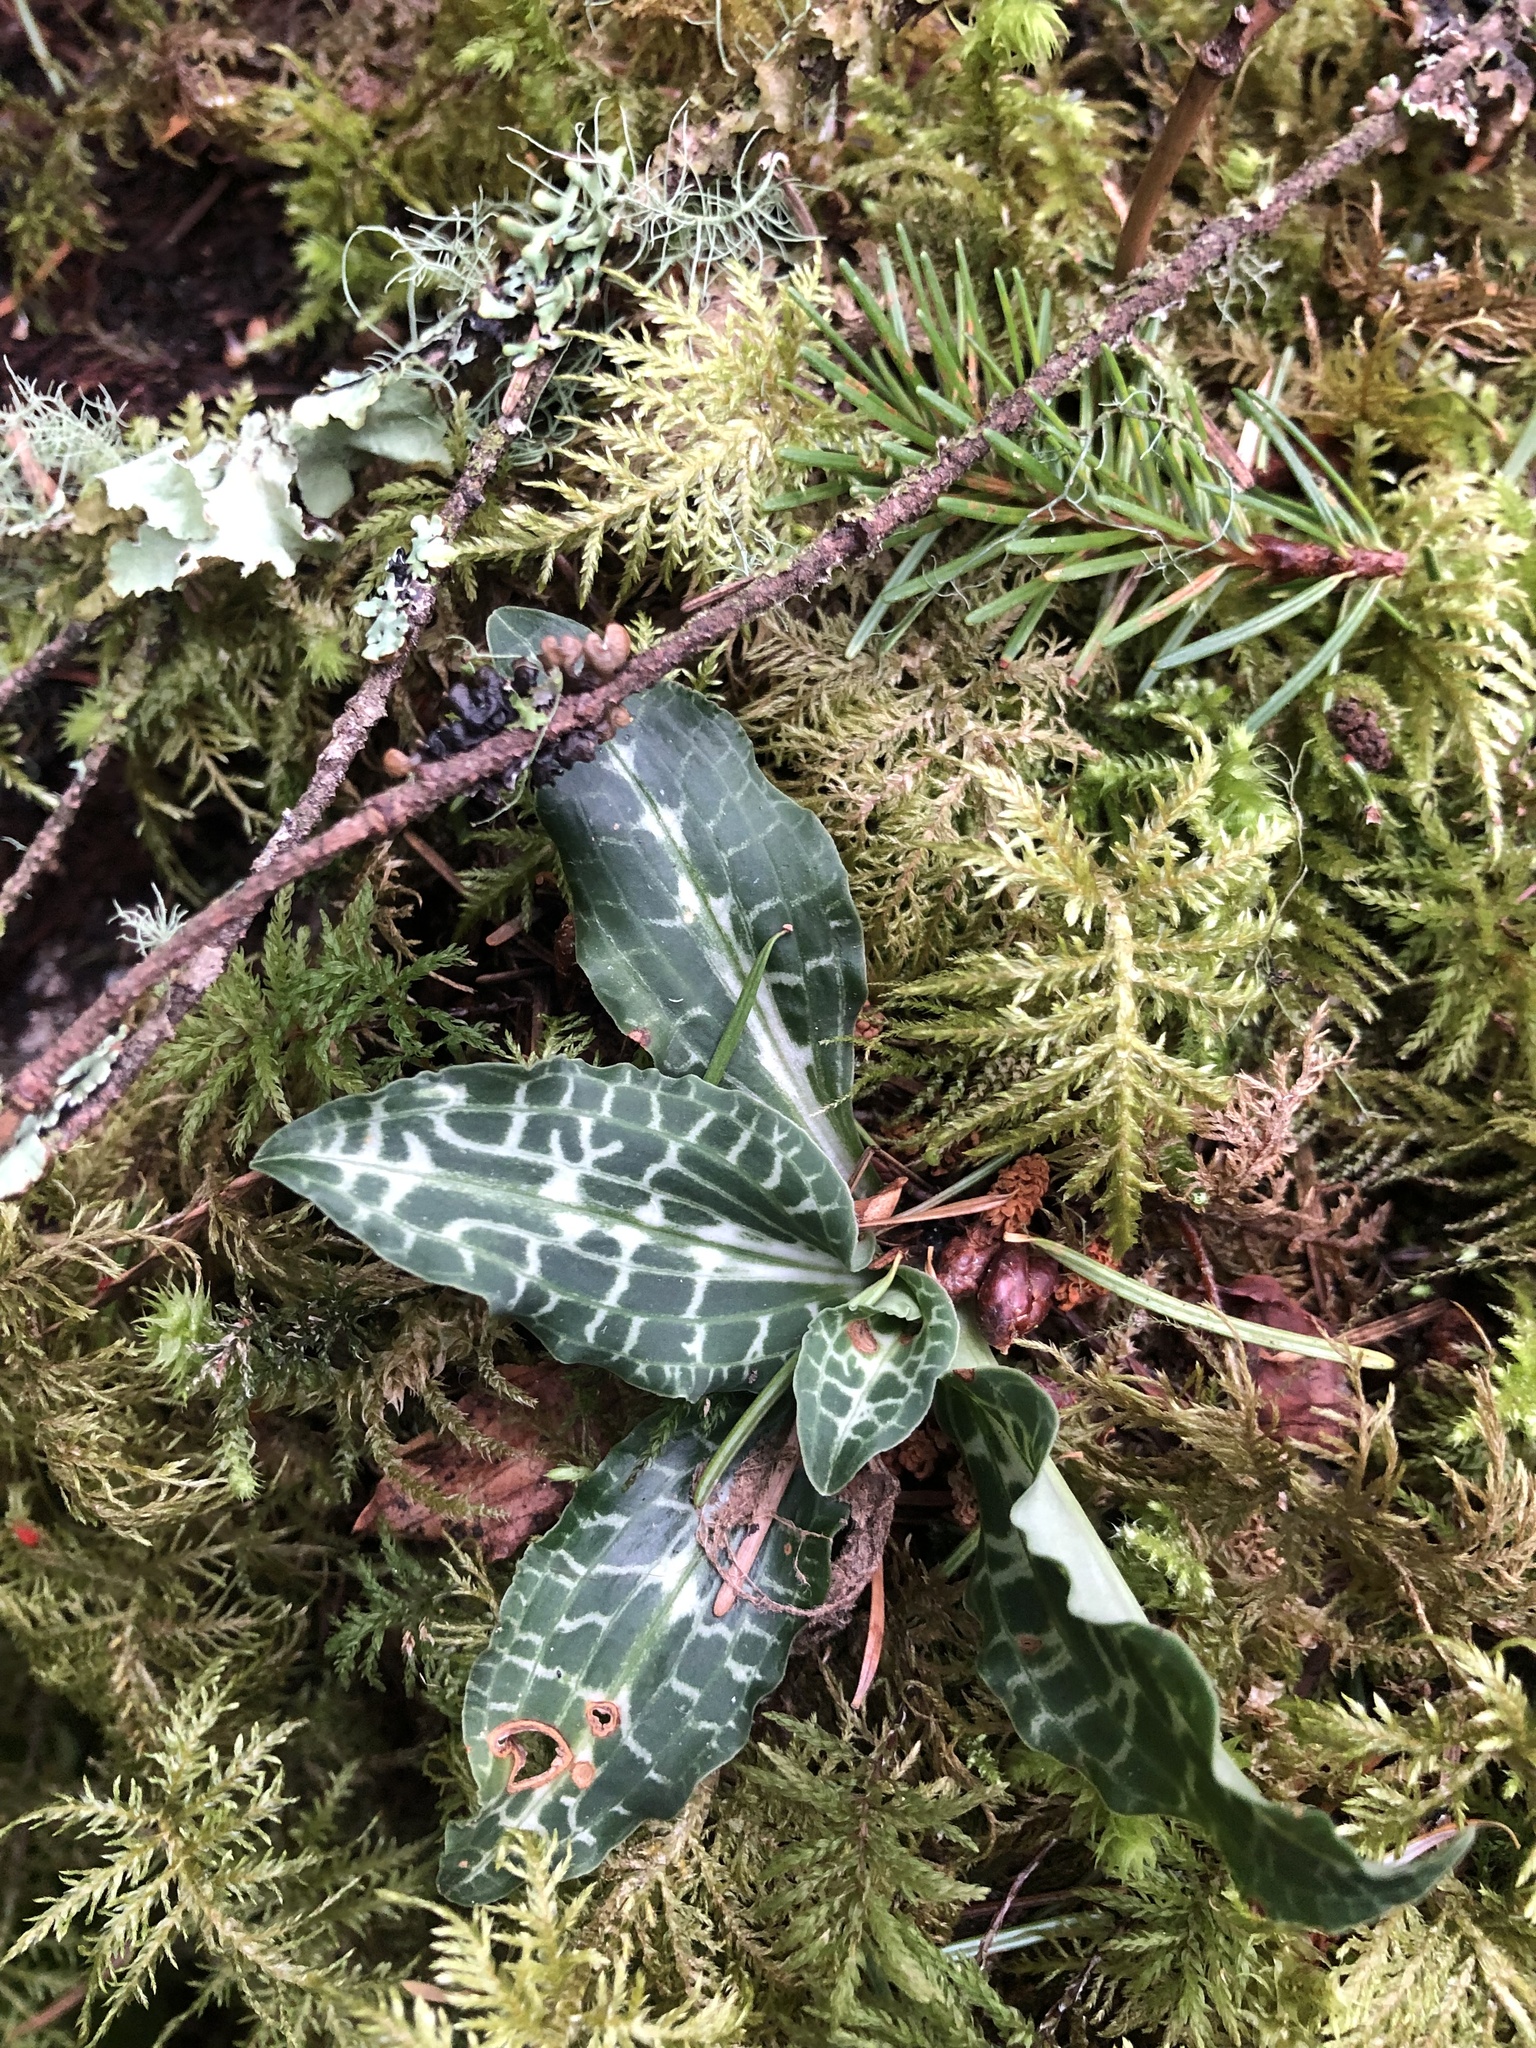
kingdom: Plantae
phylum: Tracheophyta
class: Liliopsida
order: Asparagales
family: Orchidaceae
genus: Goodyera
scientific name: Goodyera oblongifolia
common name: Giant rattlesnake-plantain
